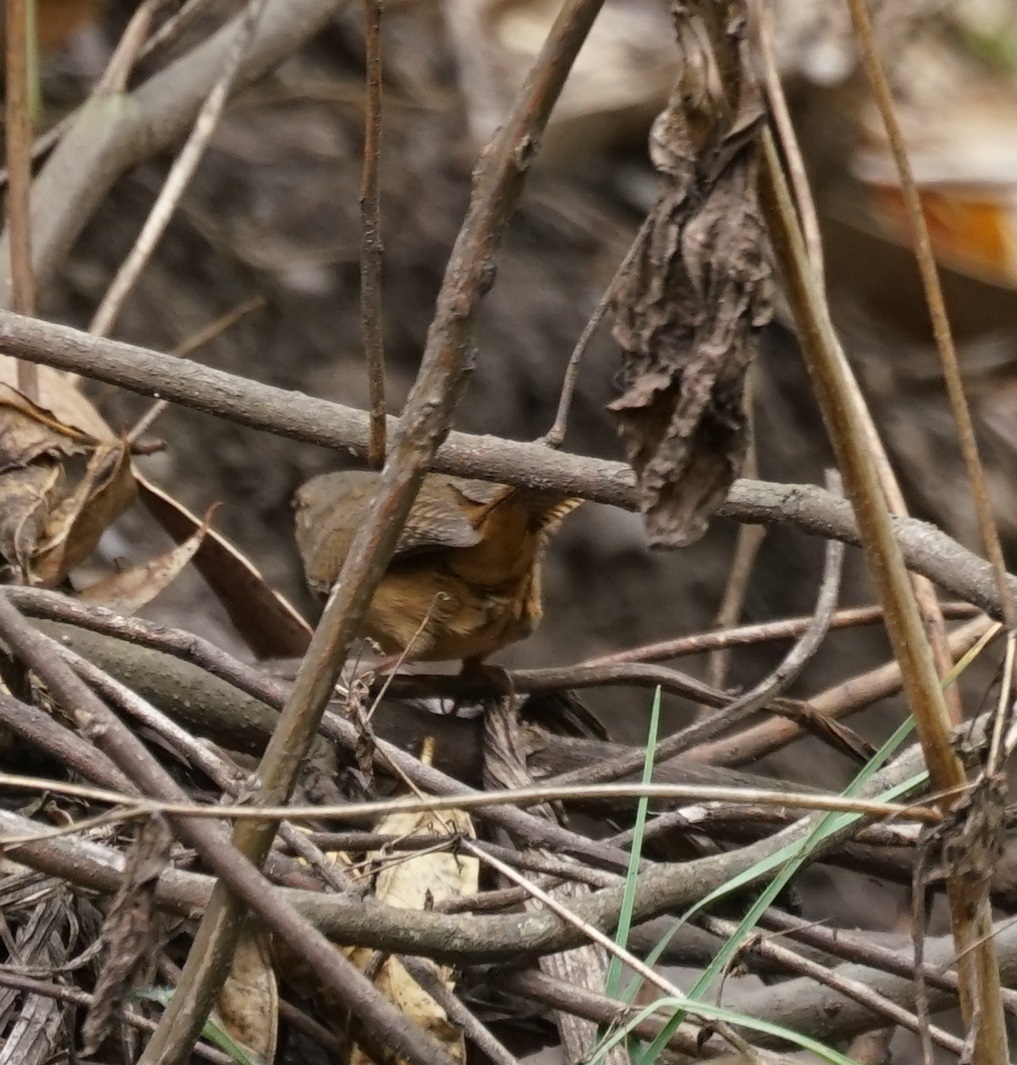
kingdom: Animalia
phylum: Chordata
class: Aves
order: Passeriformes
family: Troglodytidae
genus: Troglodytes
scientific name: Troglodytes aedon
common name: House wren
